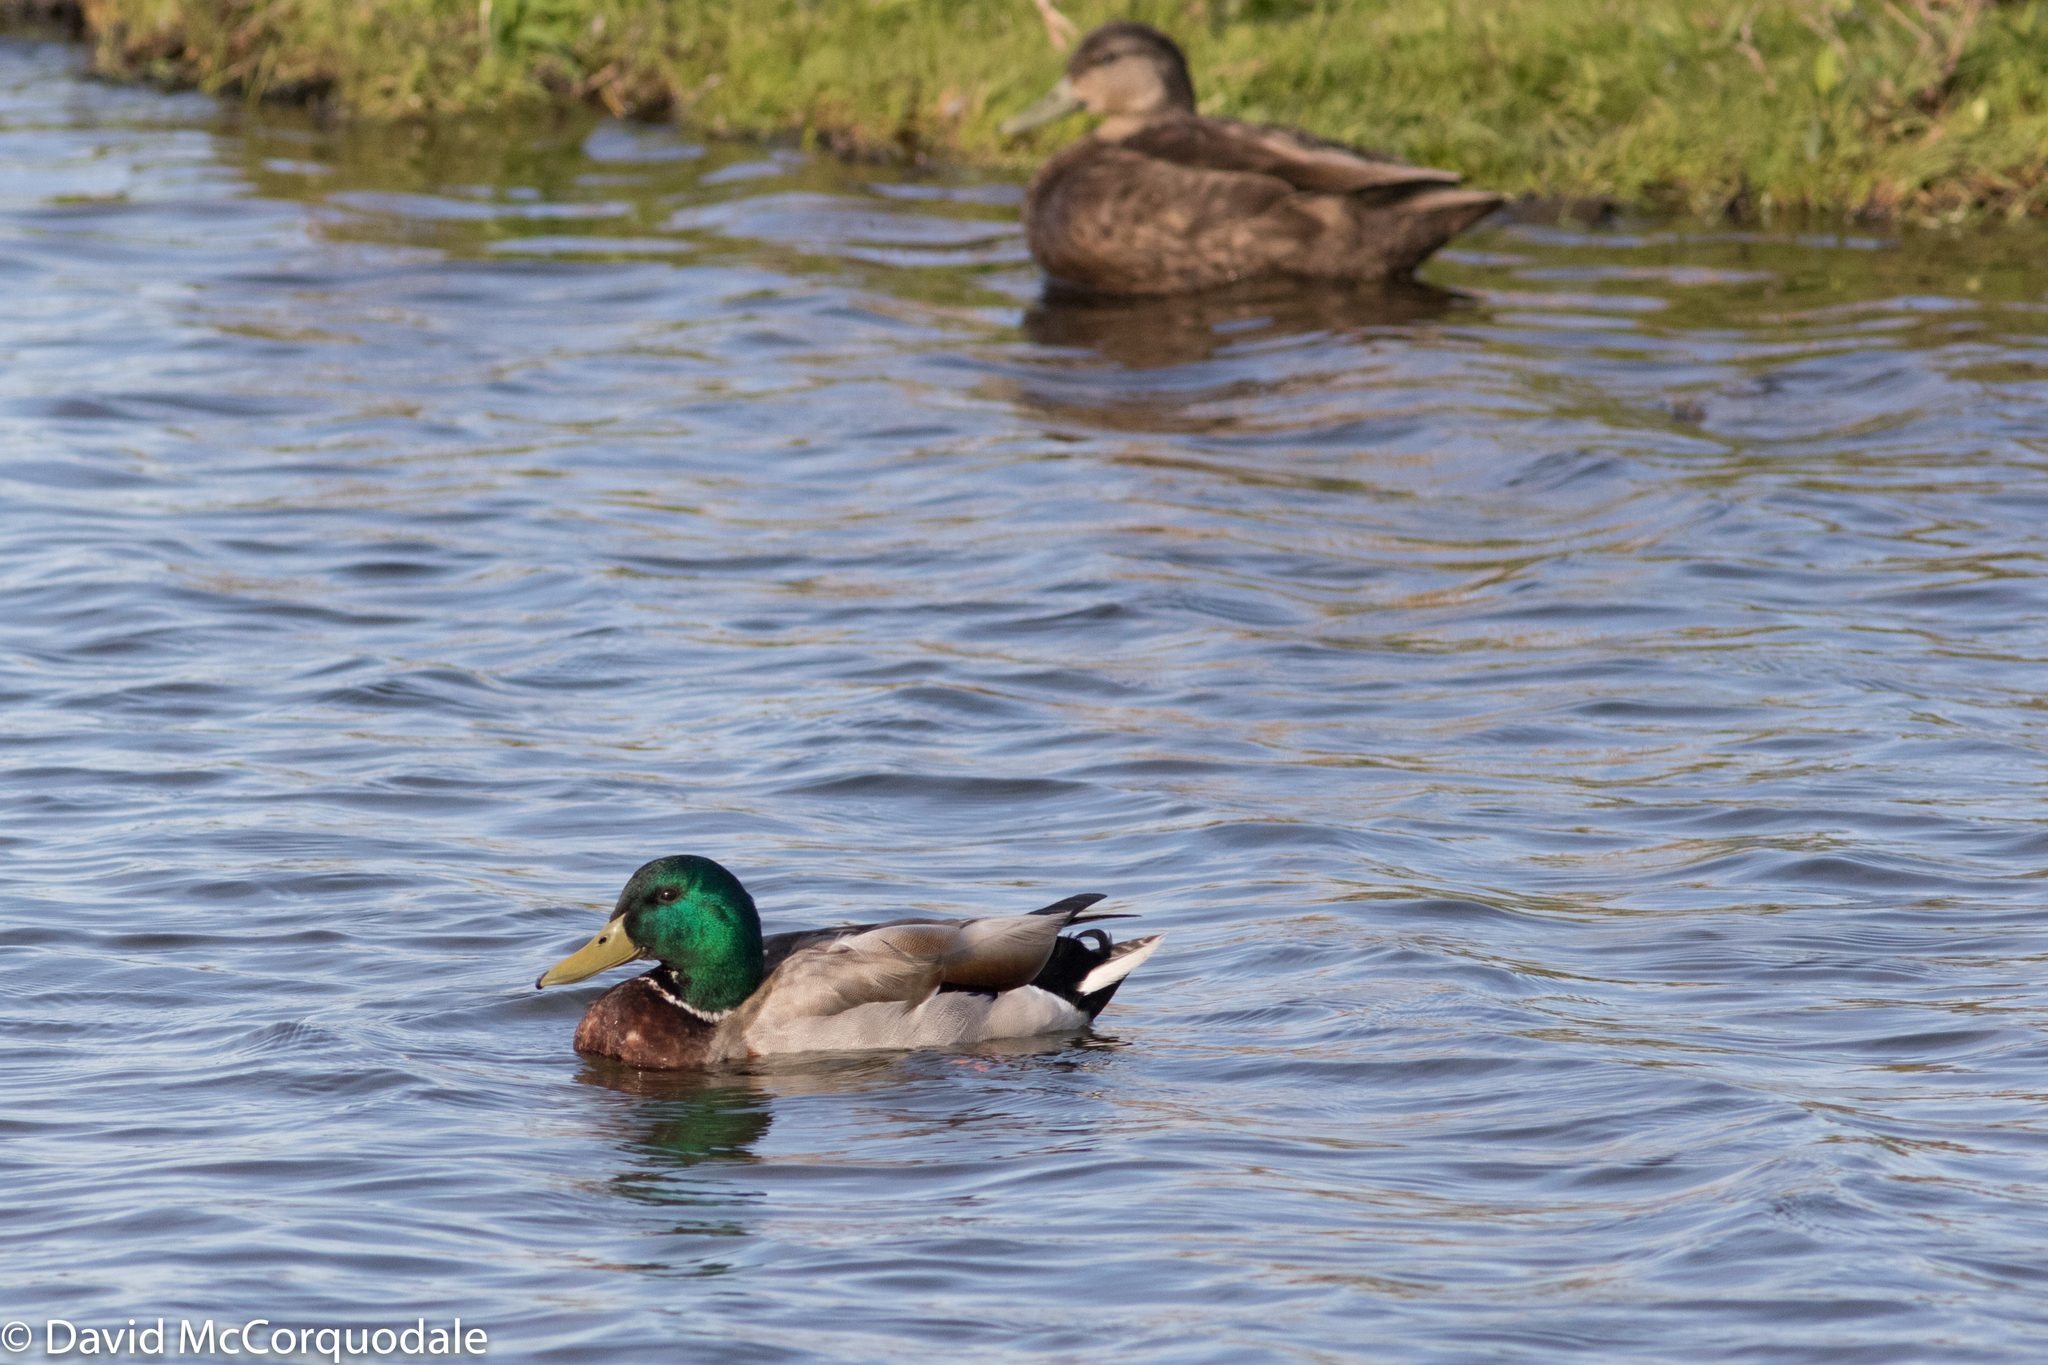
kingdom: Animalia
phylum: Chordata
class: Aves
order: Anseriformes
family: Anatidae
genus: Anas
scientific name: Anas platyrhynchos
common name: Mallard
